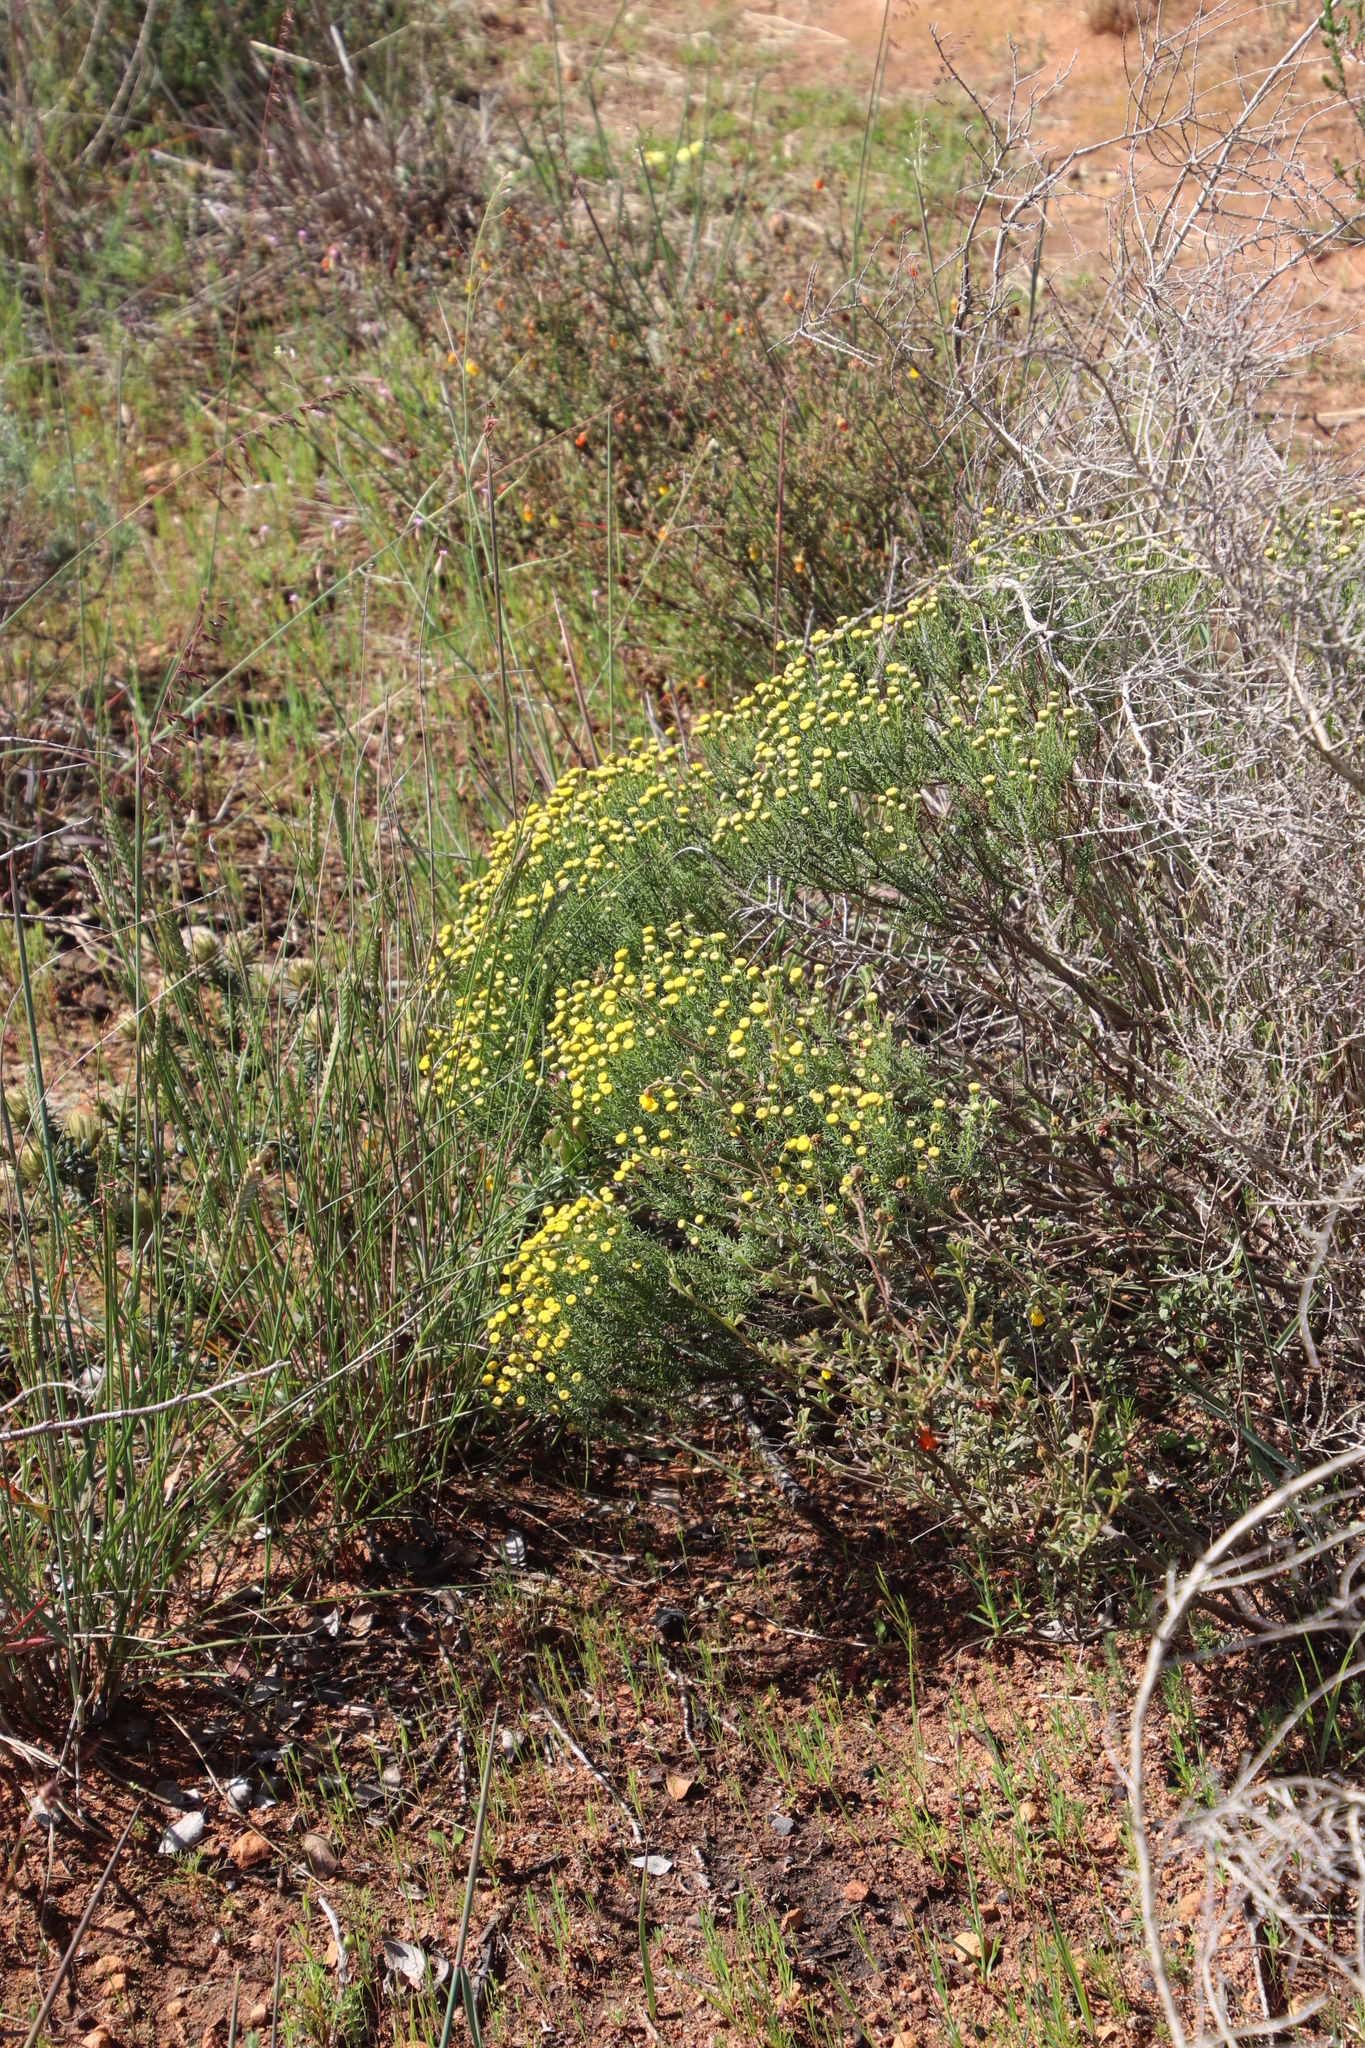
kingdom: Plantae
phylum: Tracheophyta
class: Magnoliopsida
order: Asterales
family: Asteraceae
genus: Chrysocoma
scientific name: Chrysocoma ciliata
